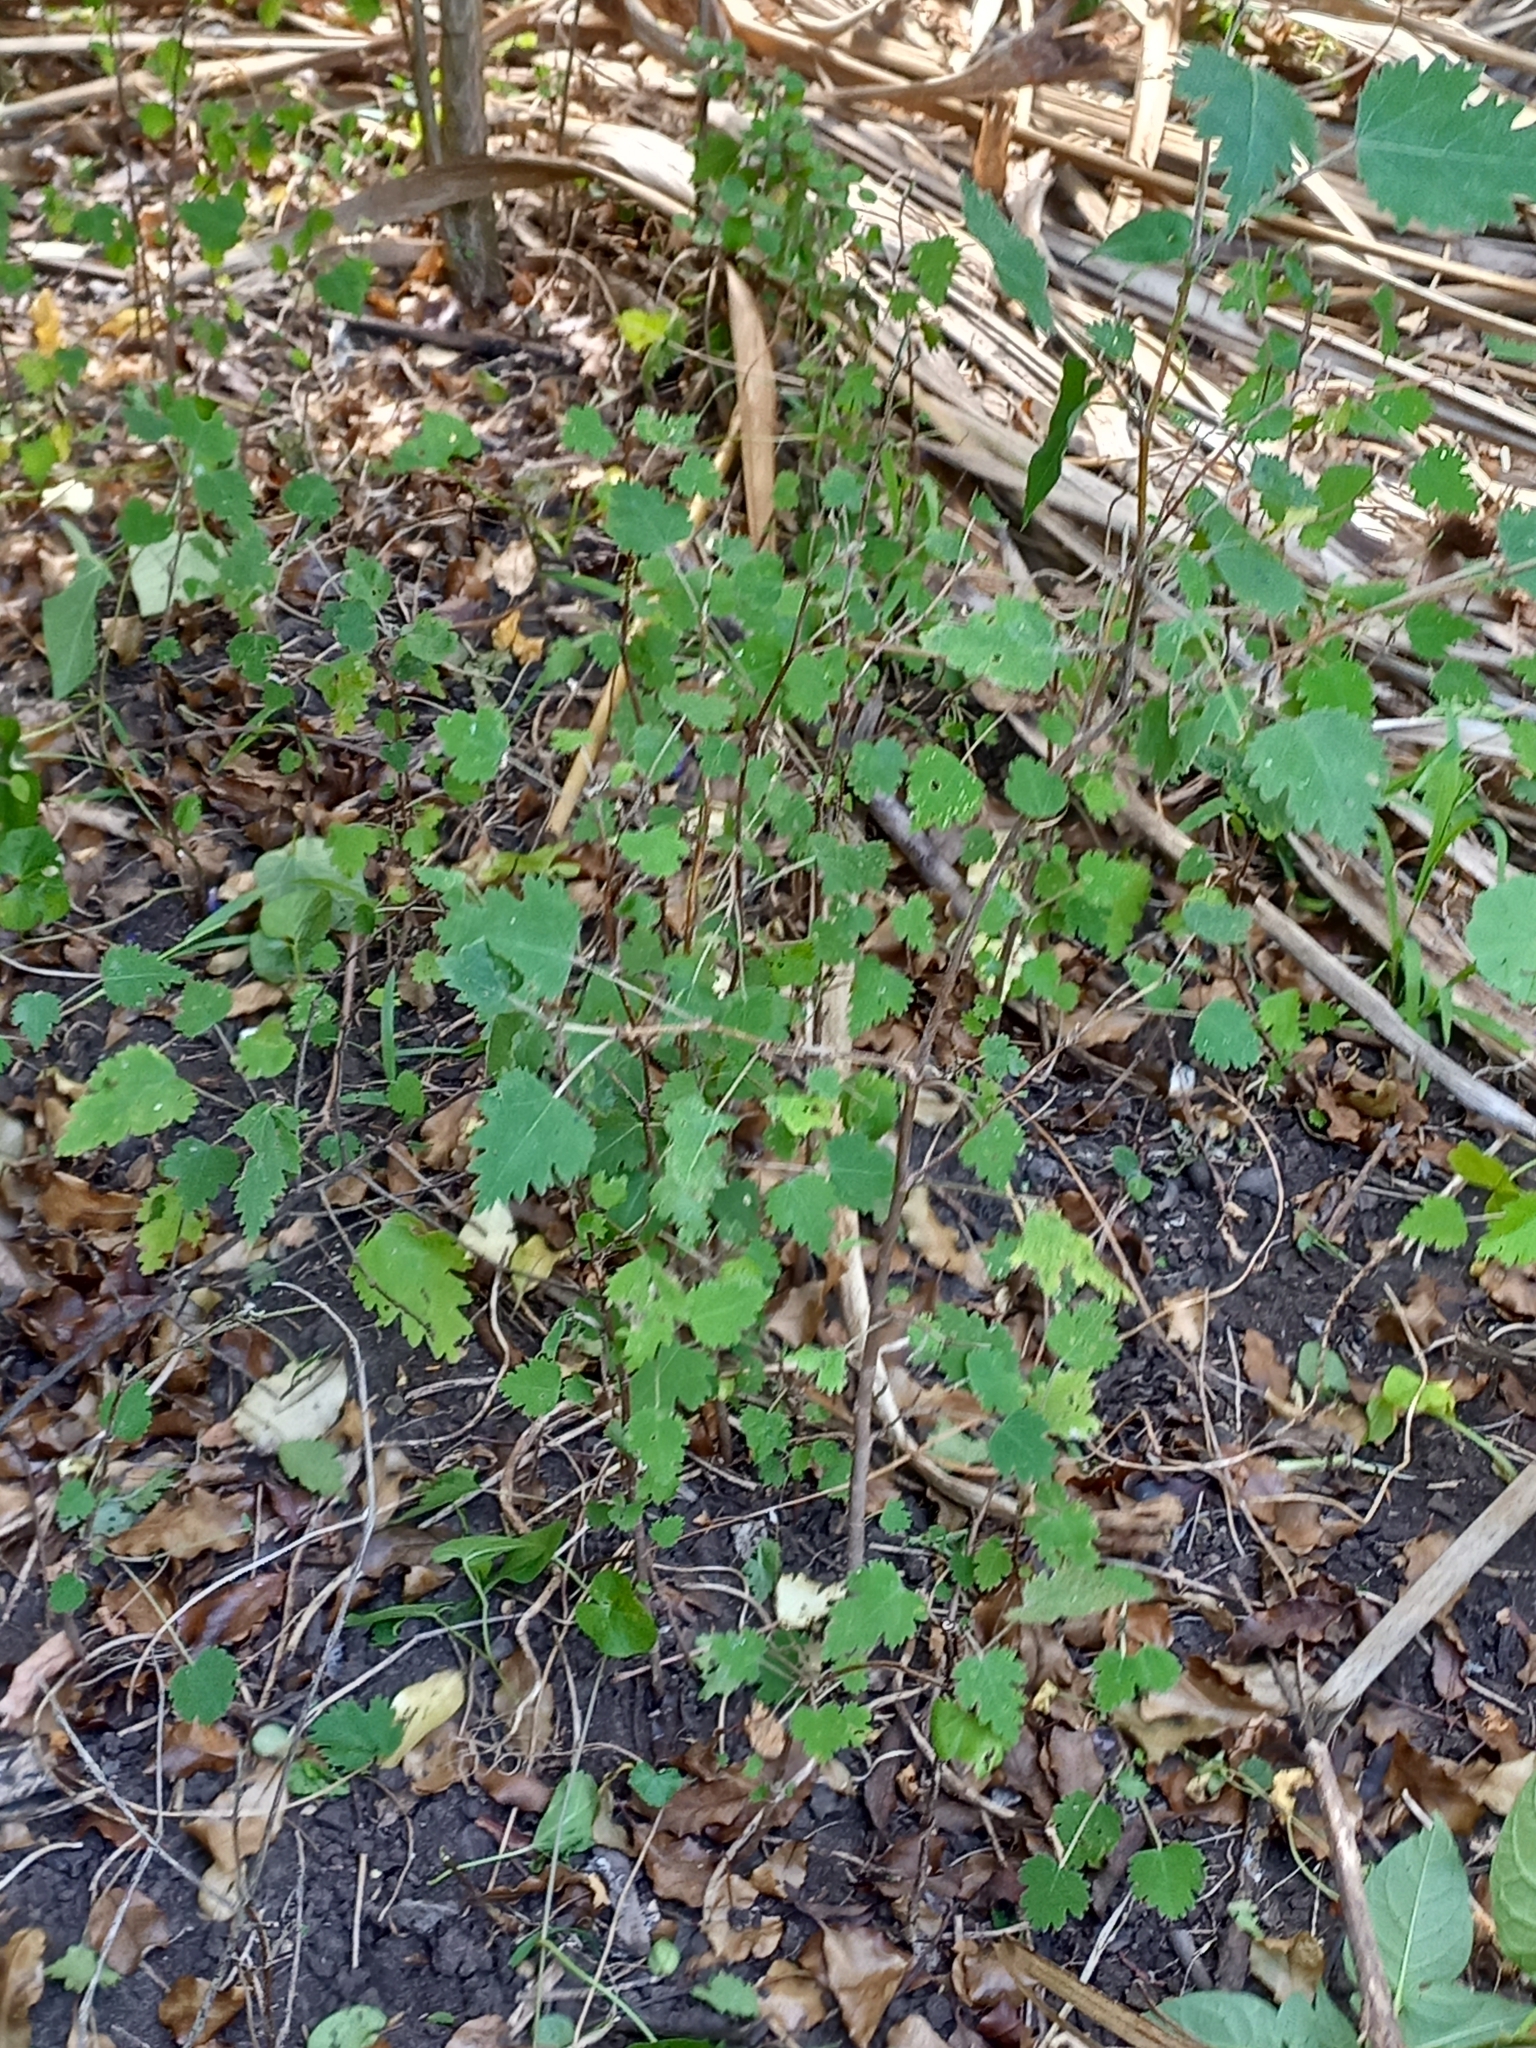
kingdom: Plantae
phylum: Tracheophyta
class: Magnoliopsida
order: Malvales
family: Malvaceae
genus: Plagianthus
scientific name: Plagianthus regius
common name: Manatu
